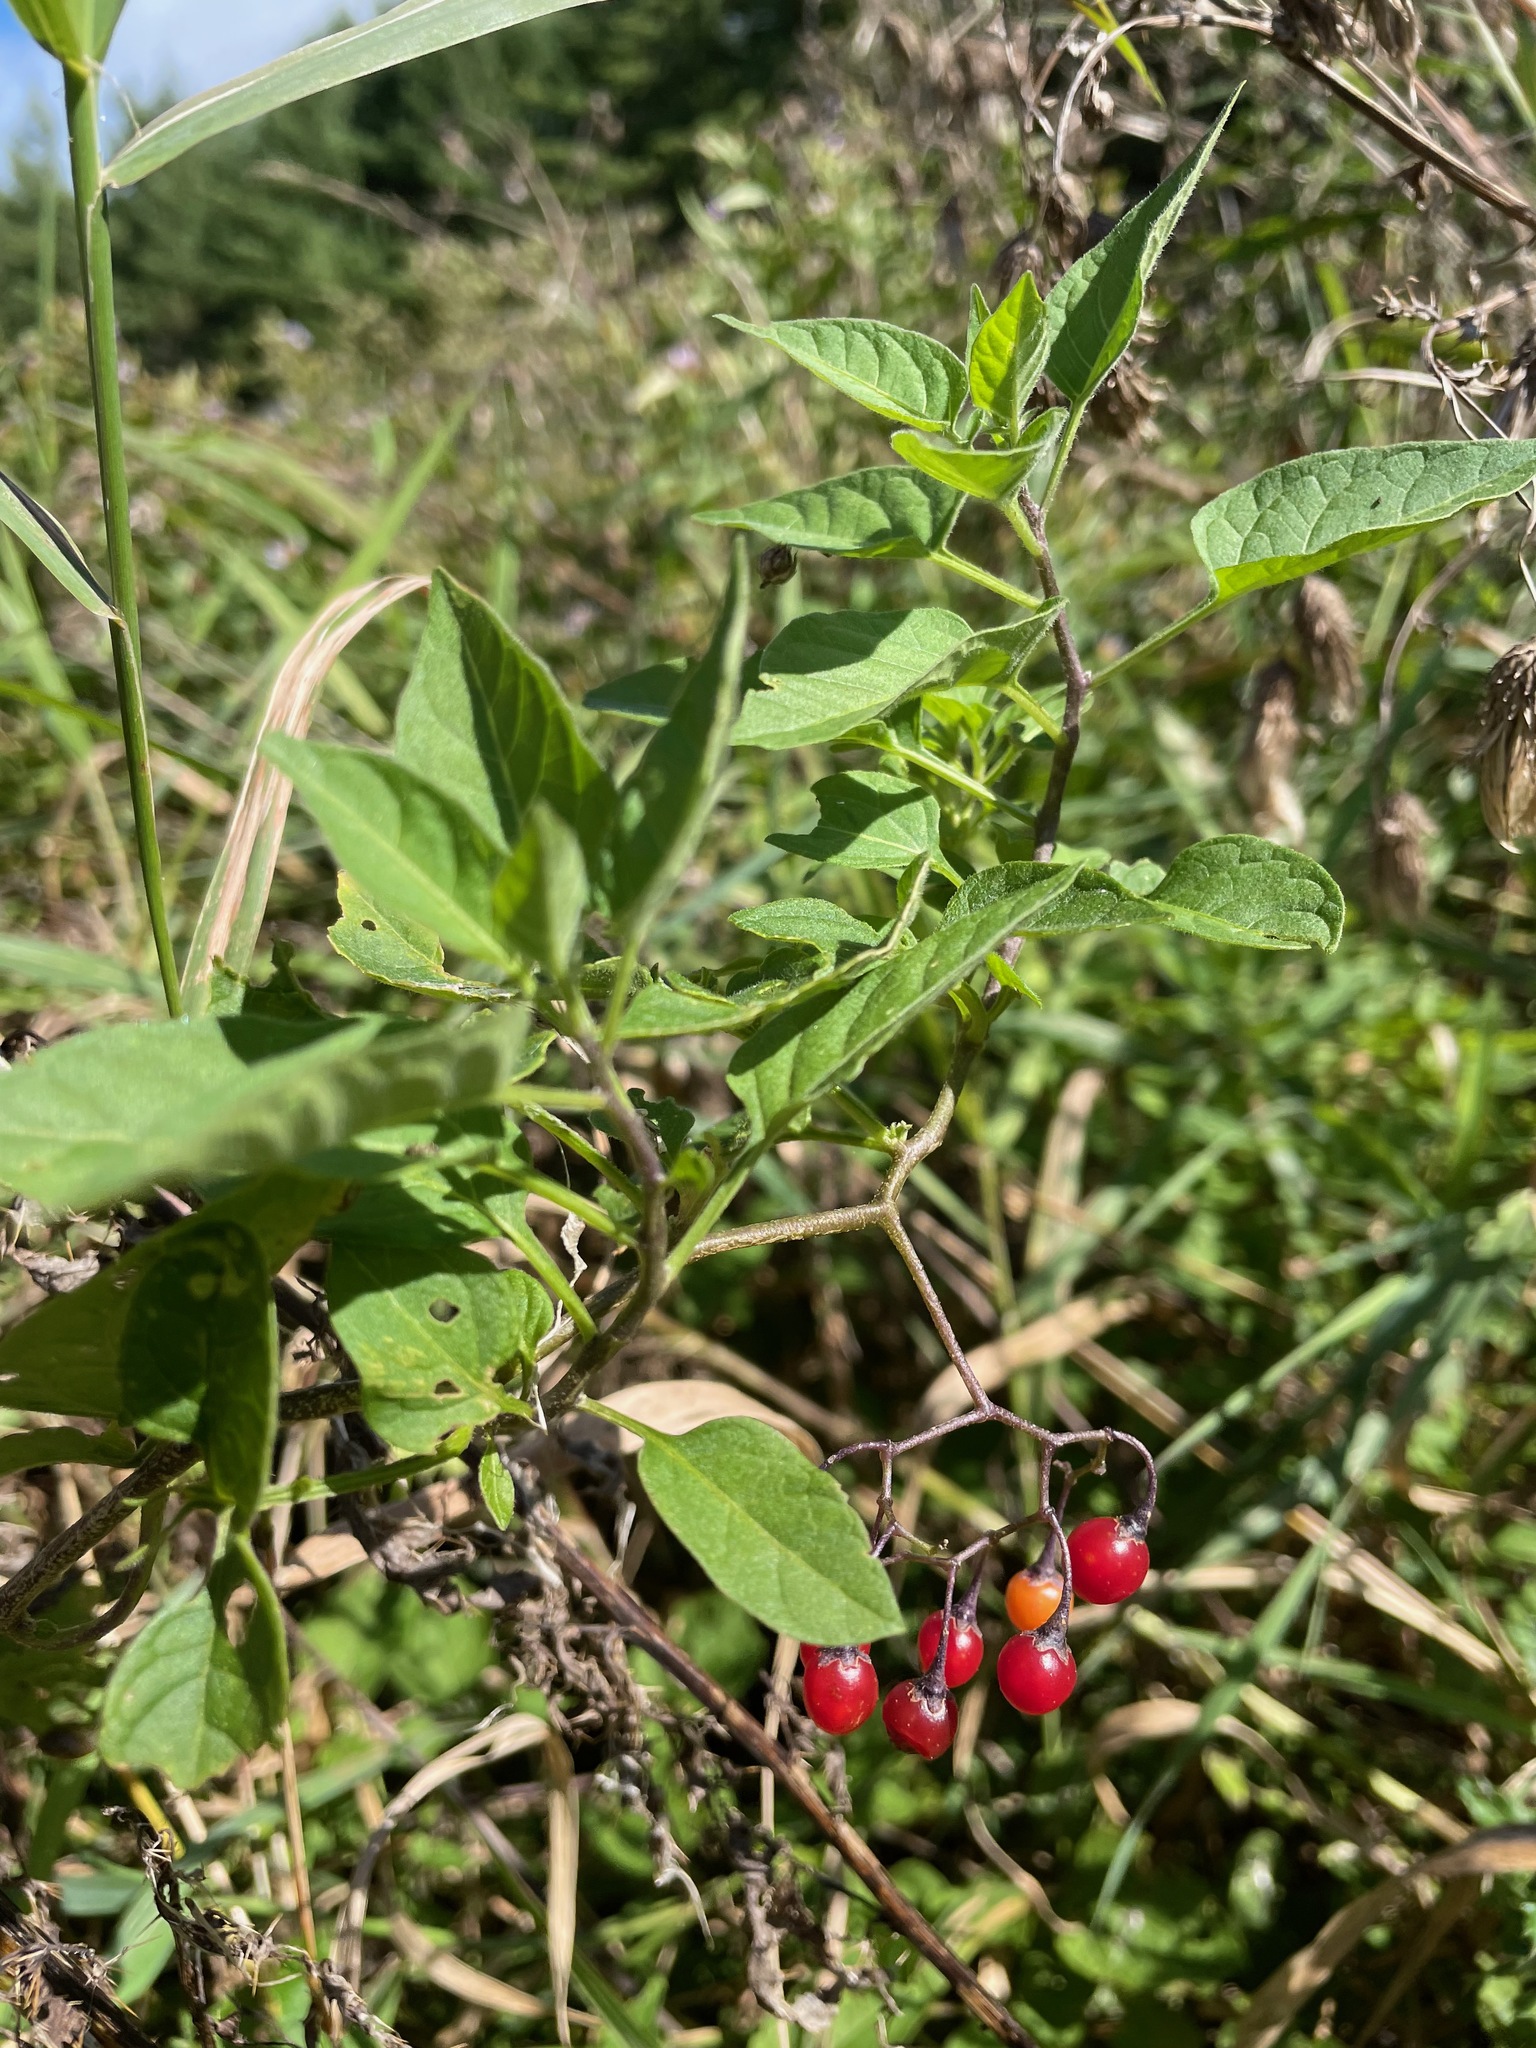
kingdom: Plantae
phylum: Tracheophyta
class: Magnoliopsida
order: Solanales
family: Solanaceae
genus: Solanum
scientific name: Solanum dulcamara
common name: Climbing nightshade
